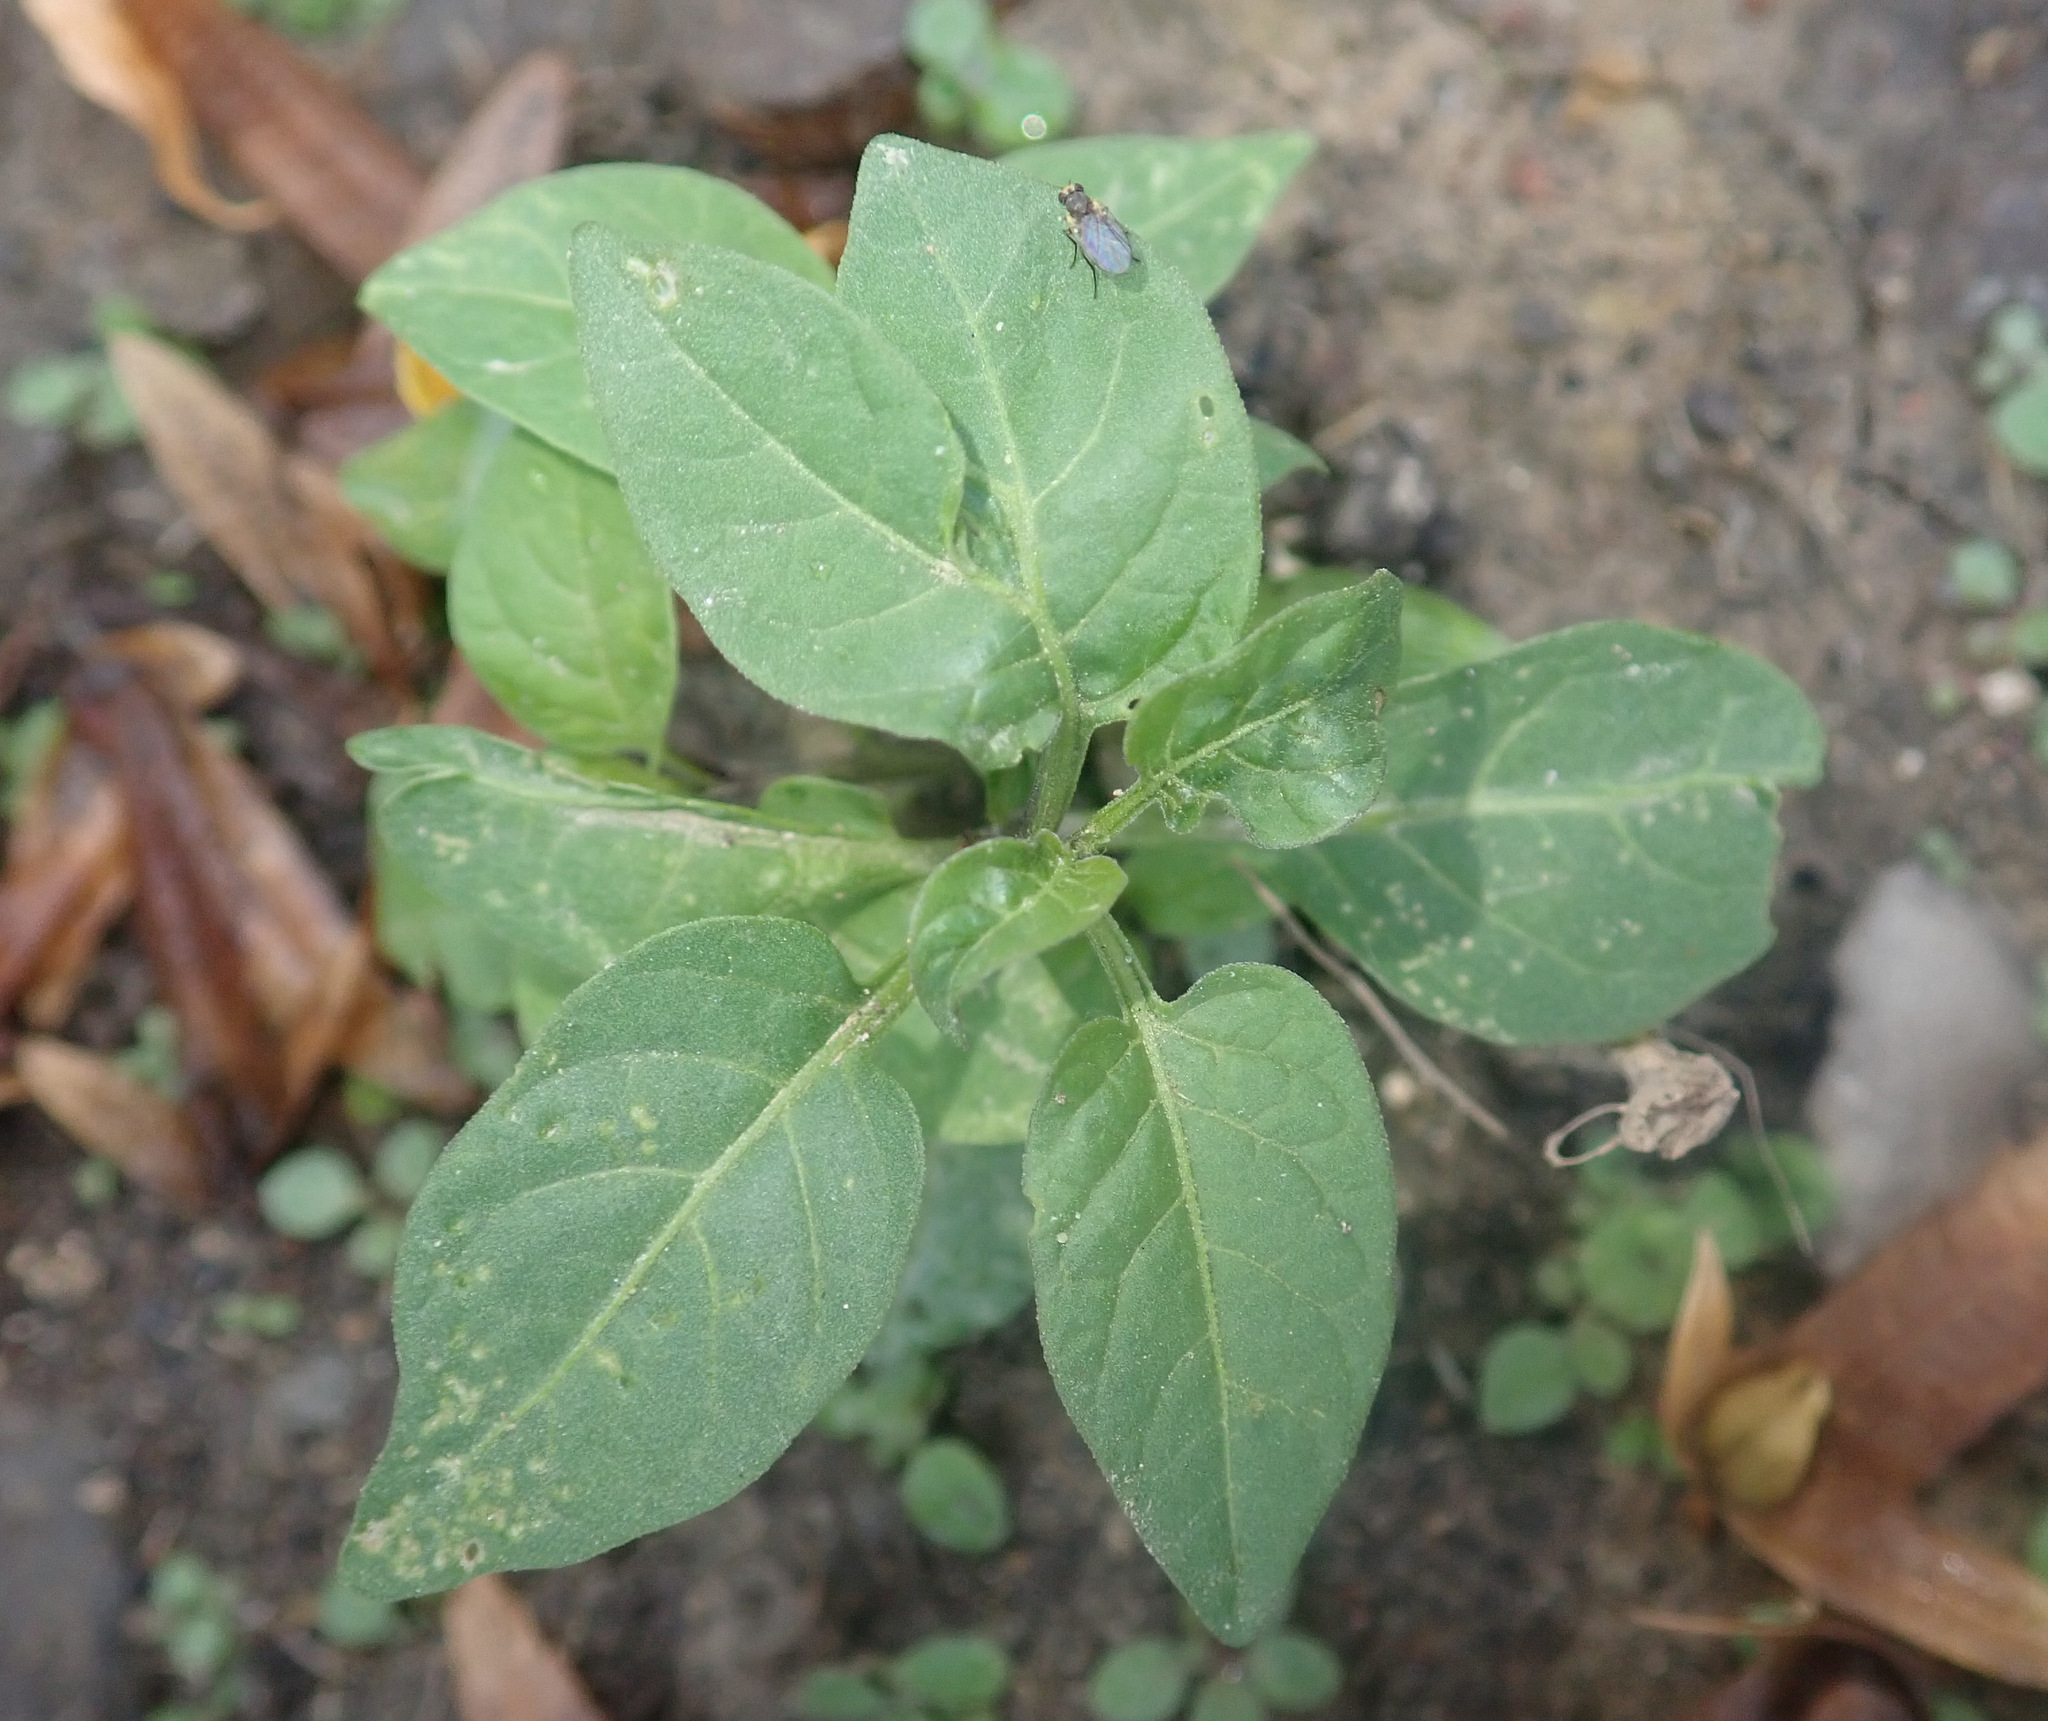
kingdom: Plantae
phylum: Tracheophyta
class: Magnoliopsida
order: Solanales
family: Solanaceae
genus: Solanum
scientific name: Solanum dulcamara
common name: Climbing nightshade
